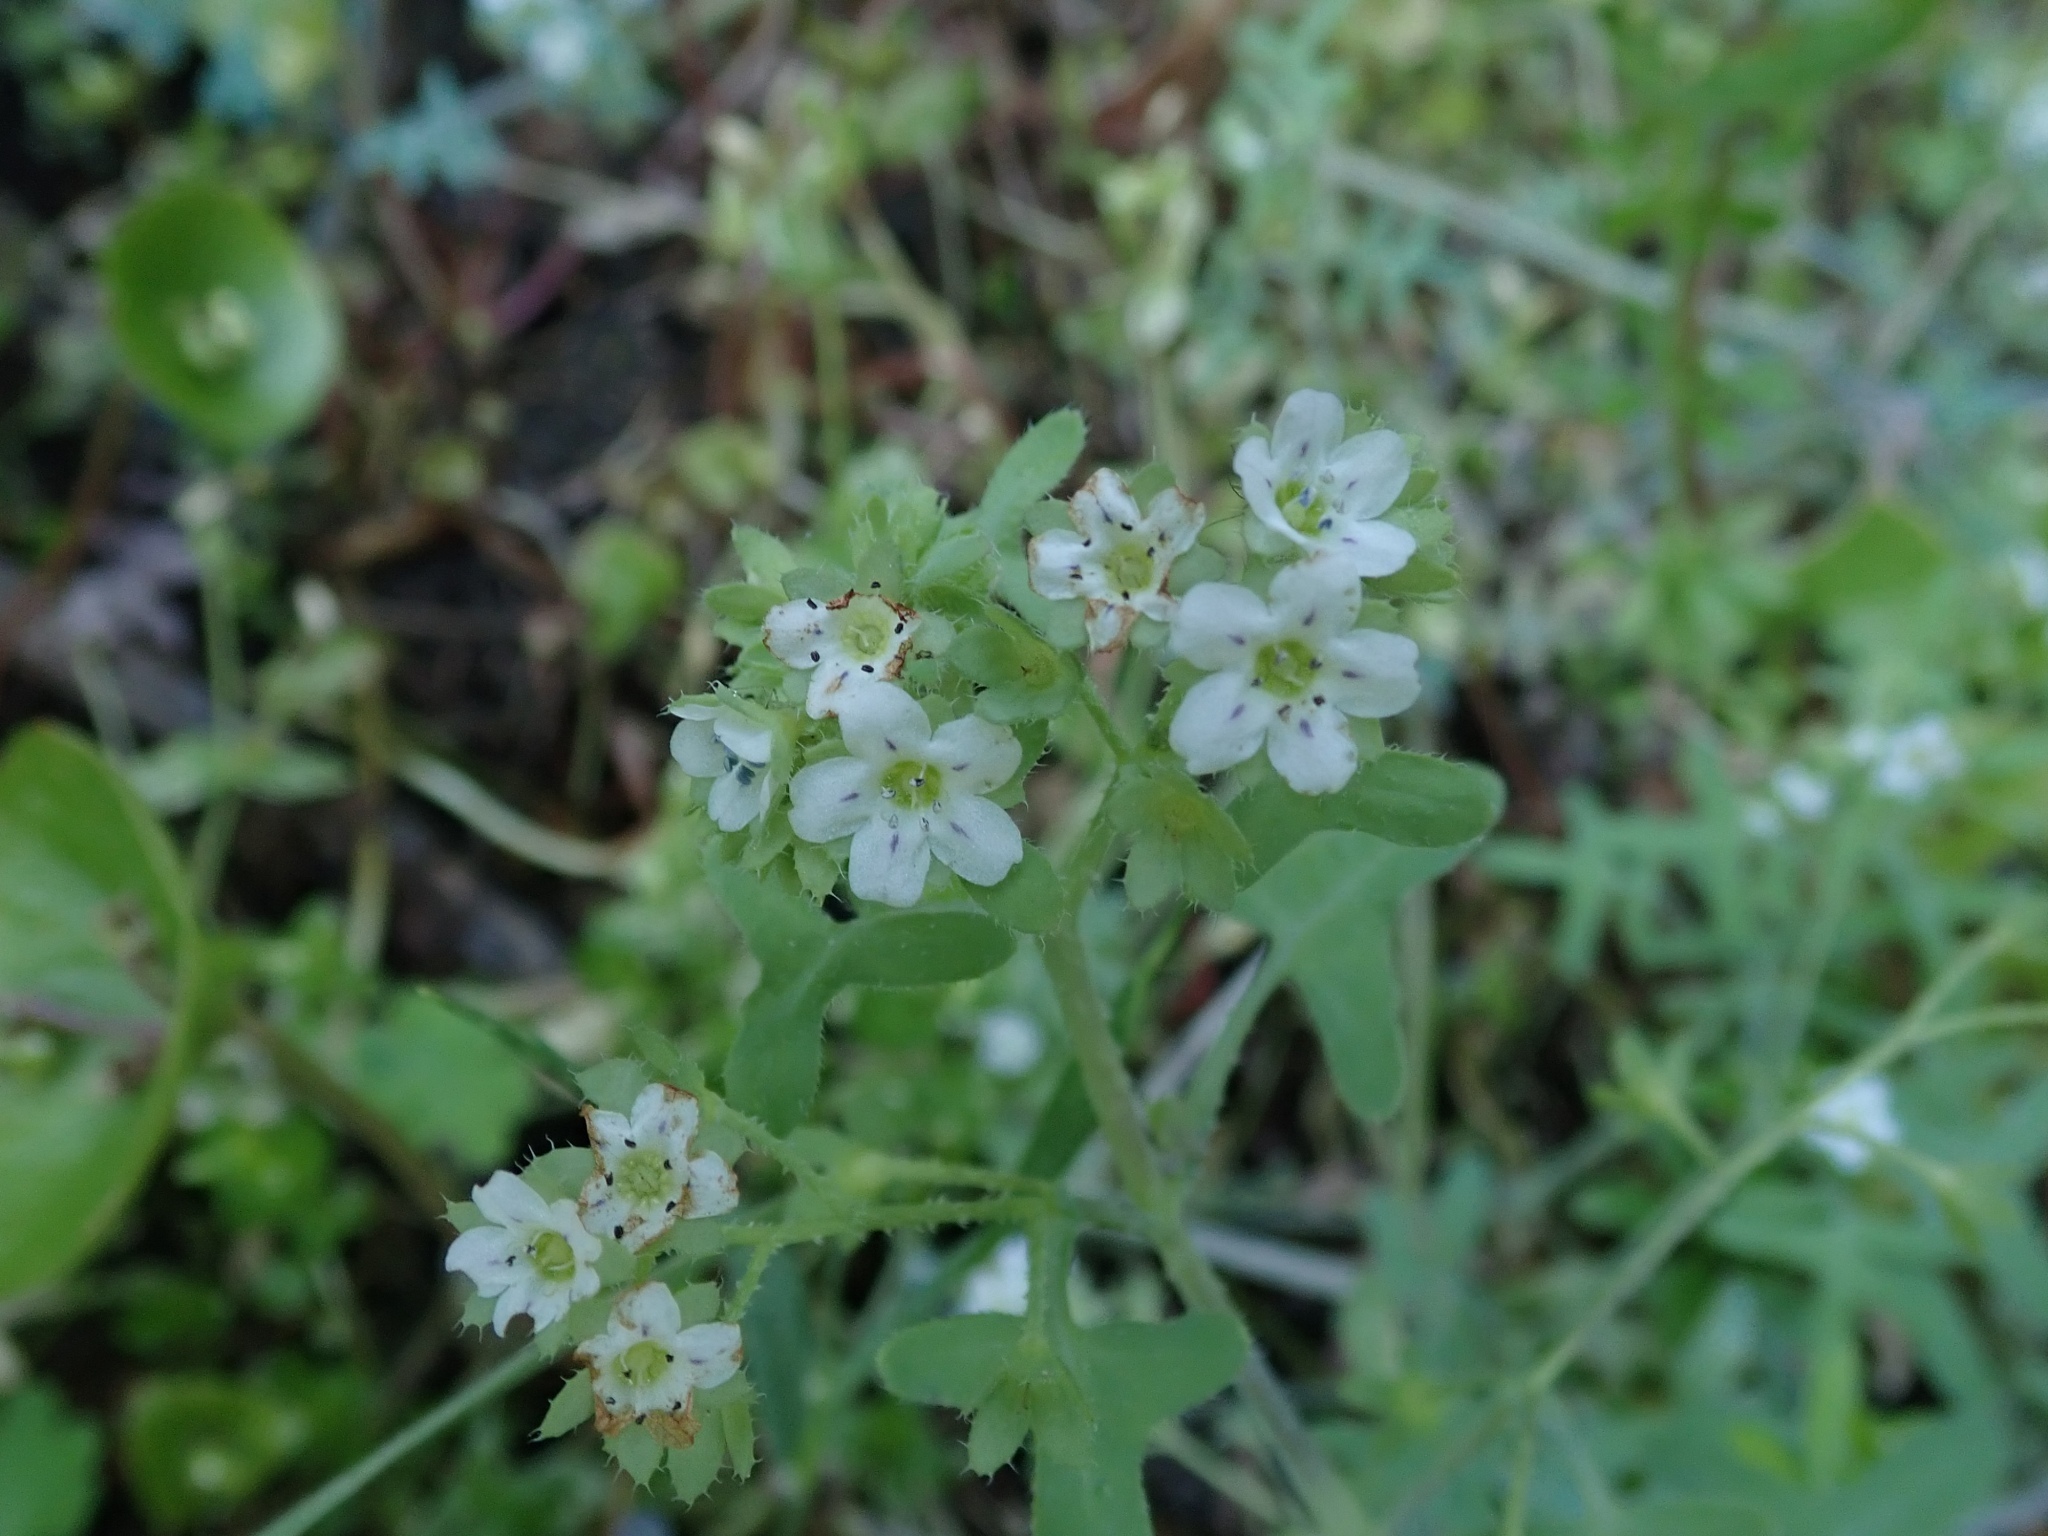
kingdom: Plantae
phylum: Tracheophyta
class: Magnoliopsida
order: Boraginales
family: Hydrophyllaceae
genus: Pholistoma
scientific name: Pholistoma membranaceum
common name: White fiesta-flower
